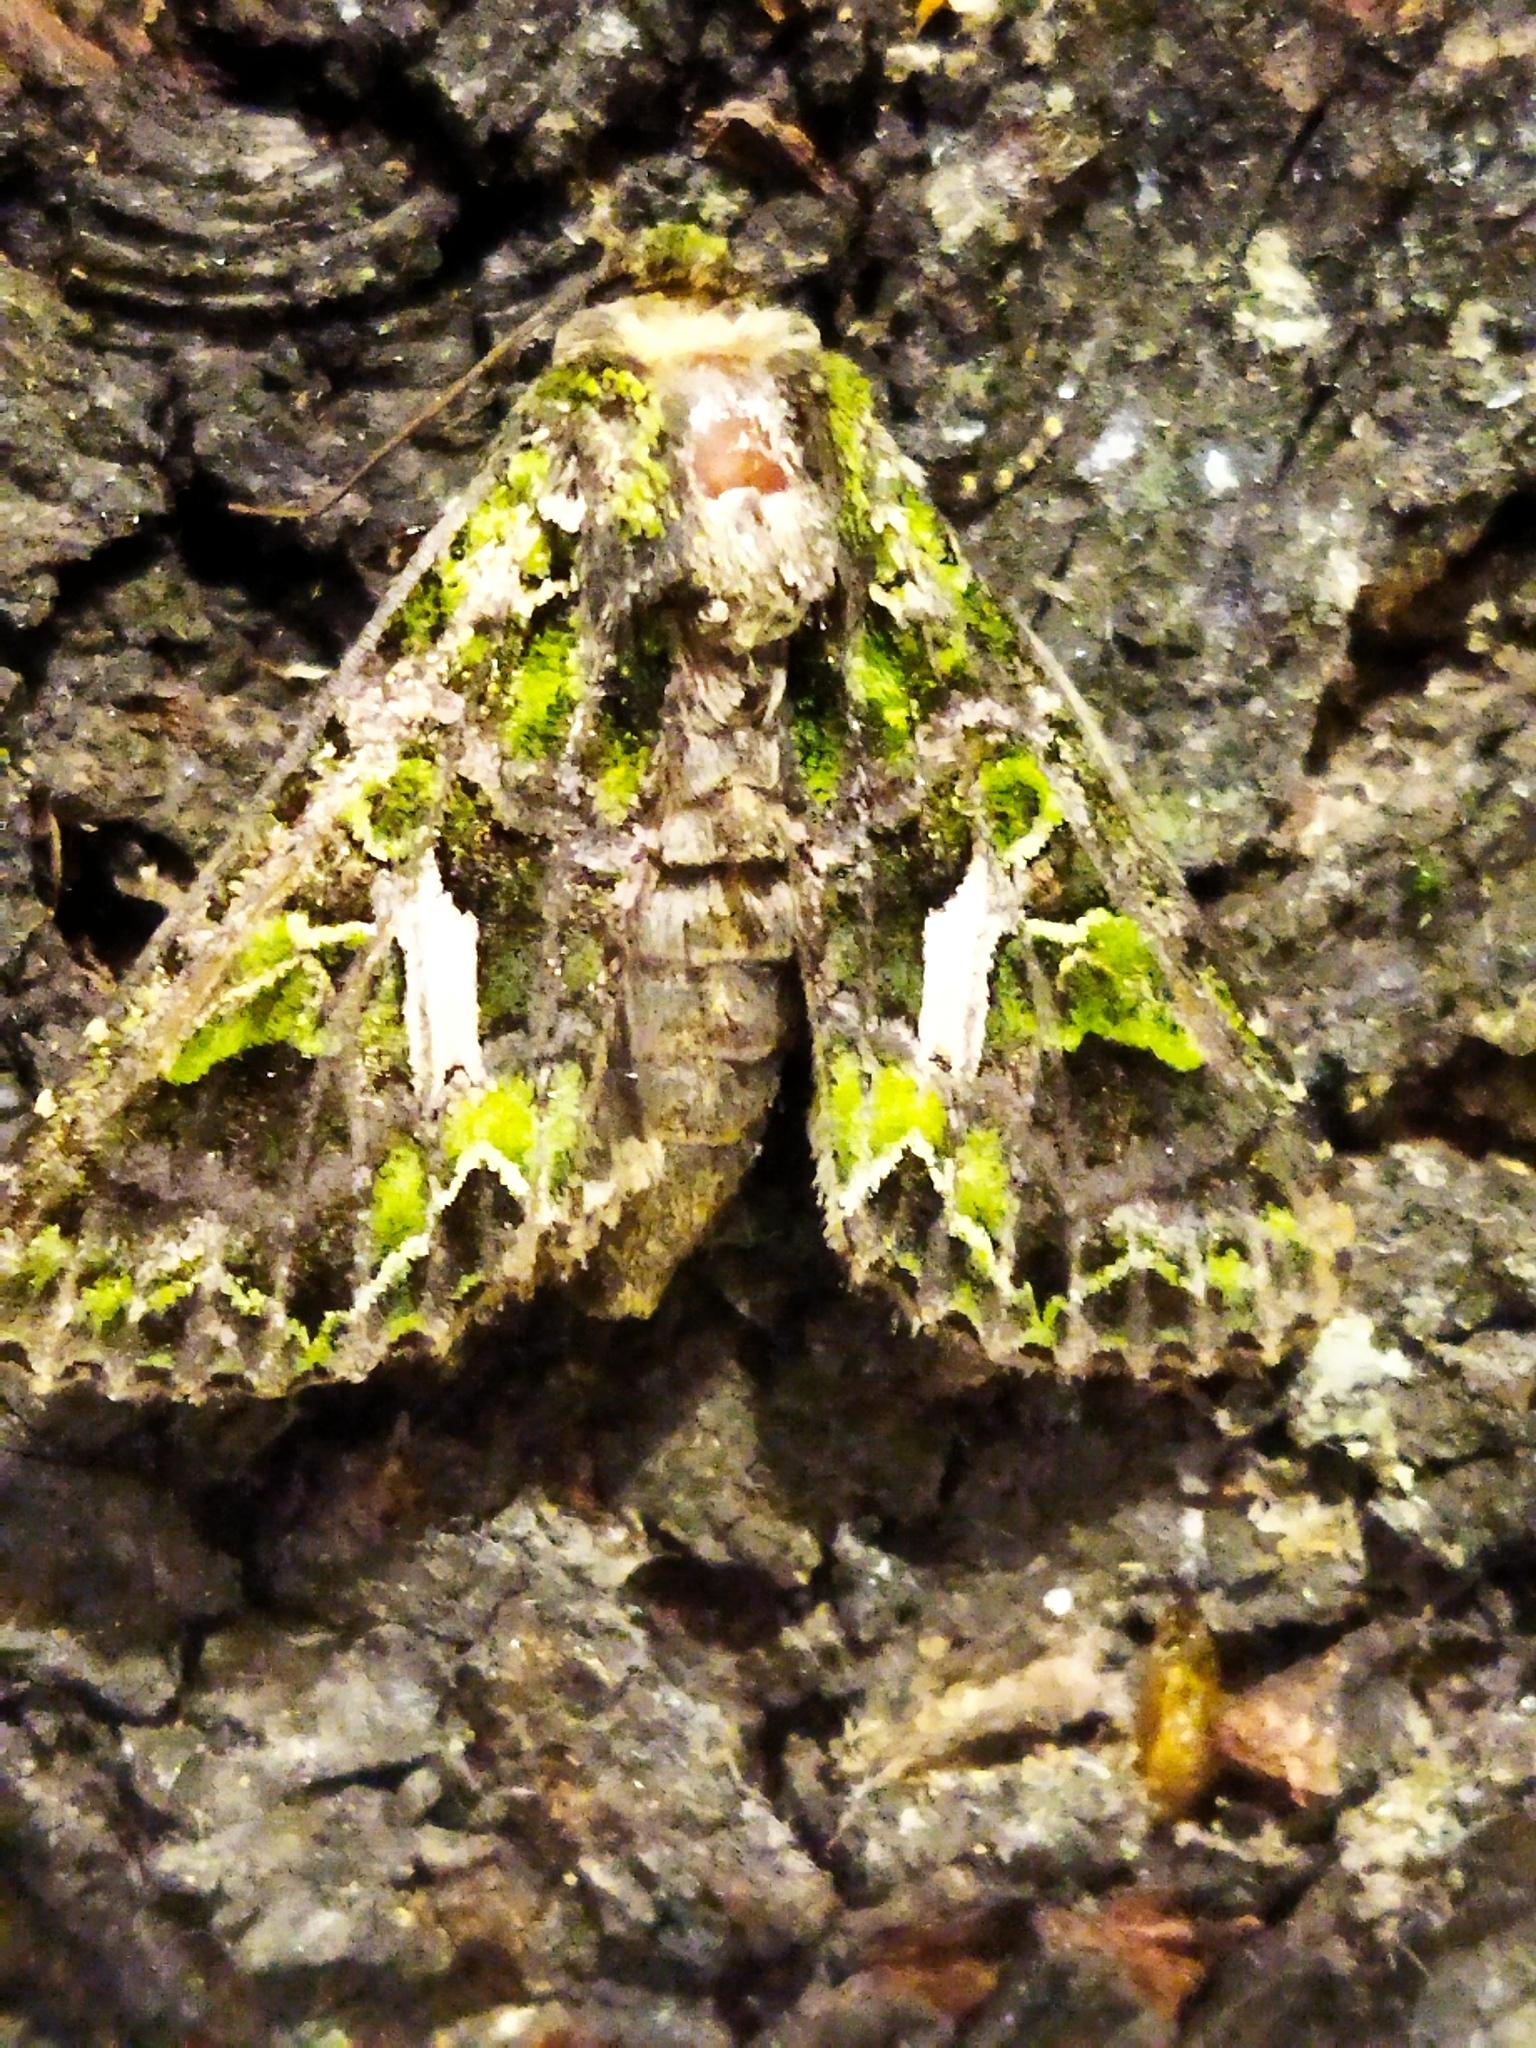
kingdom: Animalia
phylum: Arthropoda
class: Insecta
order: Lepidoptera
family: Noctuidae
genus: Trachea
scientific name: Trachea atriplicis
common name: Orache moth
